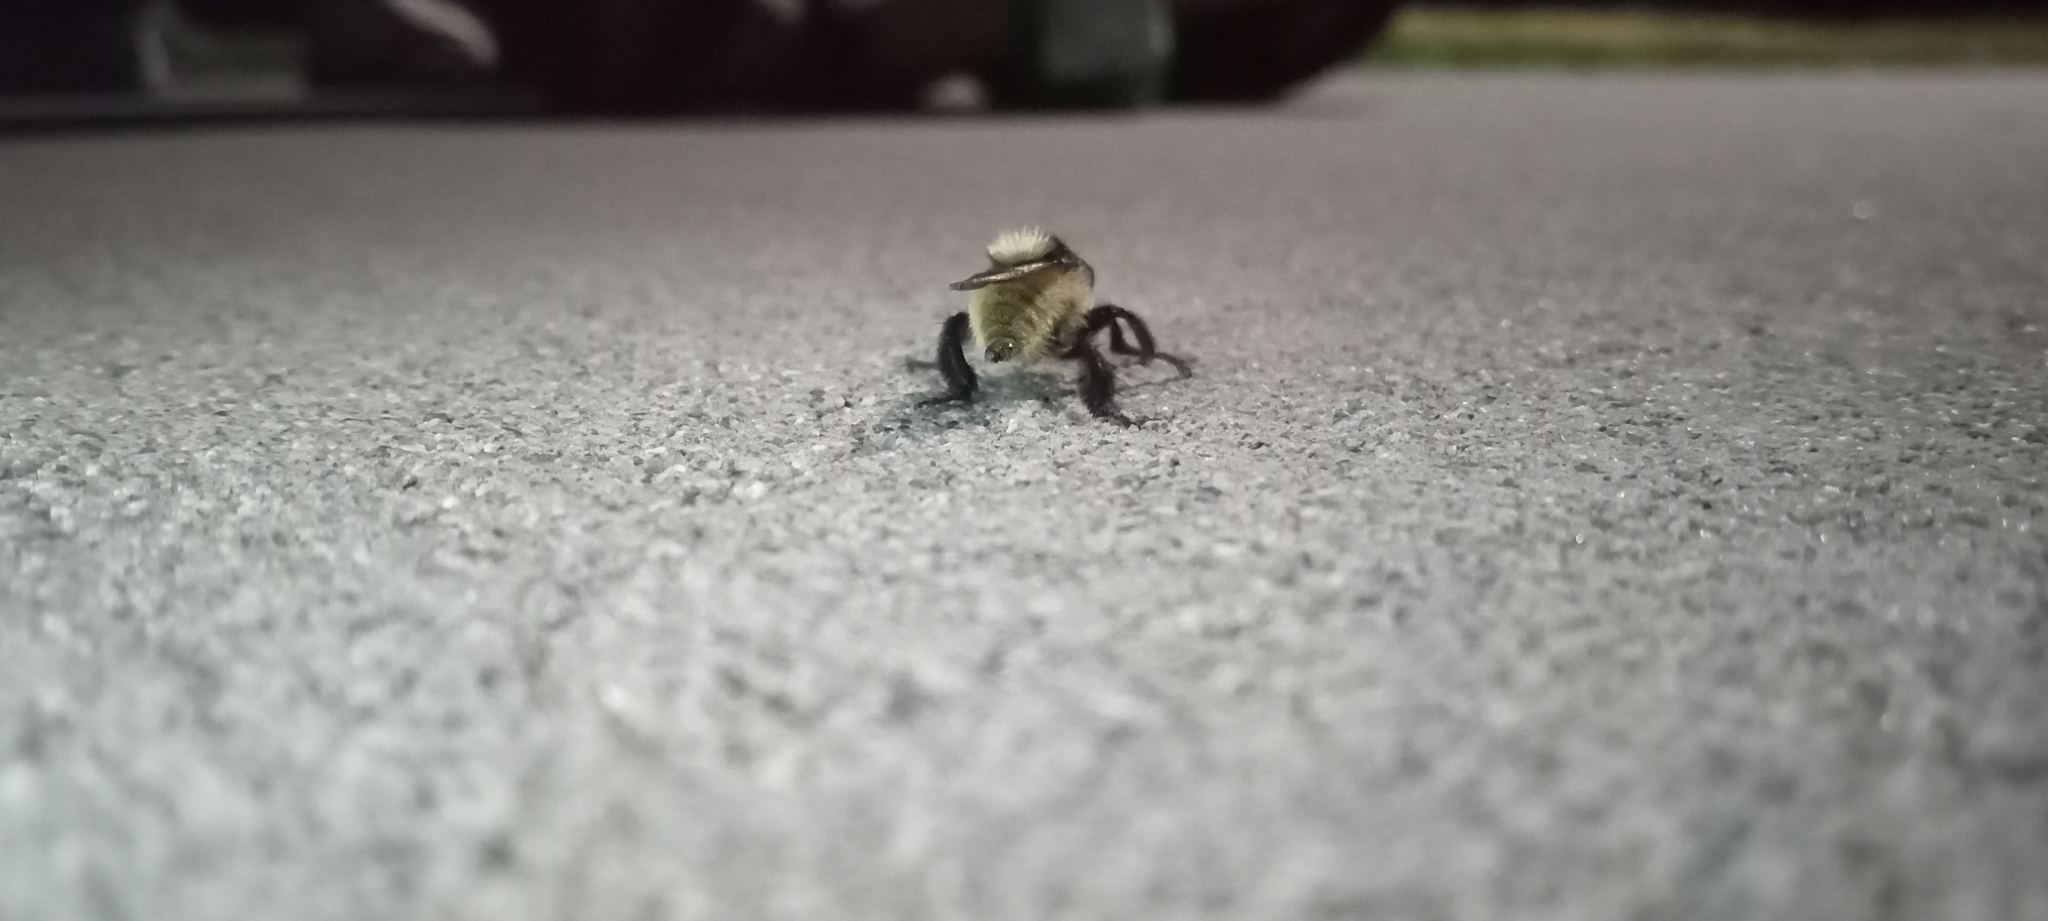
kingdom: Animalia
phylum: Arthropoda
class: Insecta
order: Diptera
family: Asilidae
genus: Mallophora
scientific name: Mallophora fautrix
